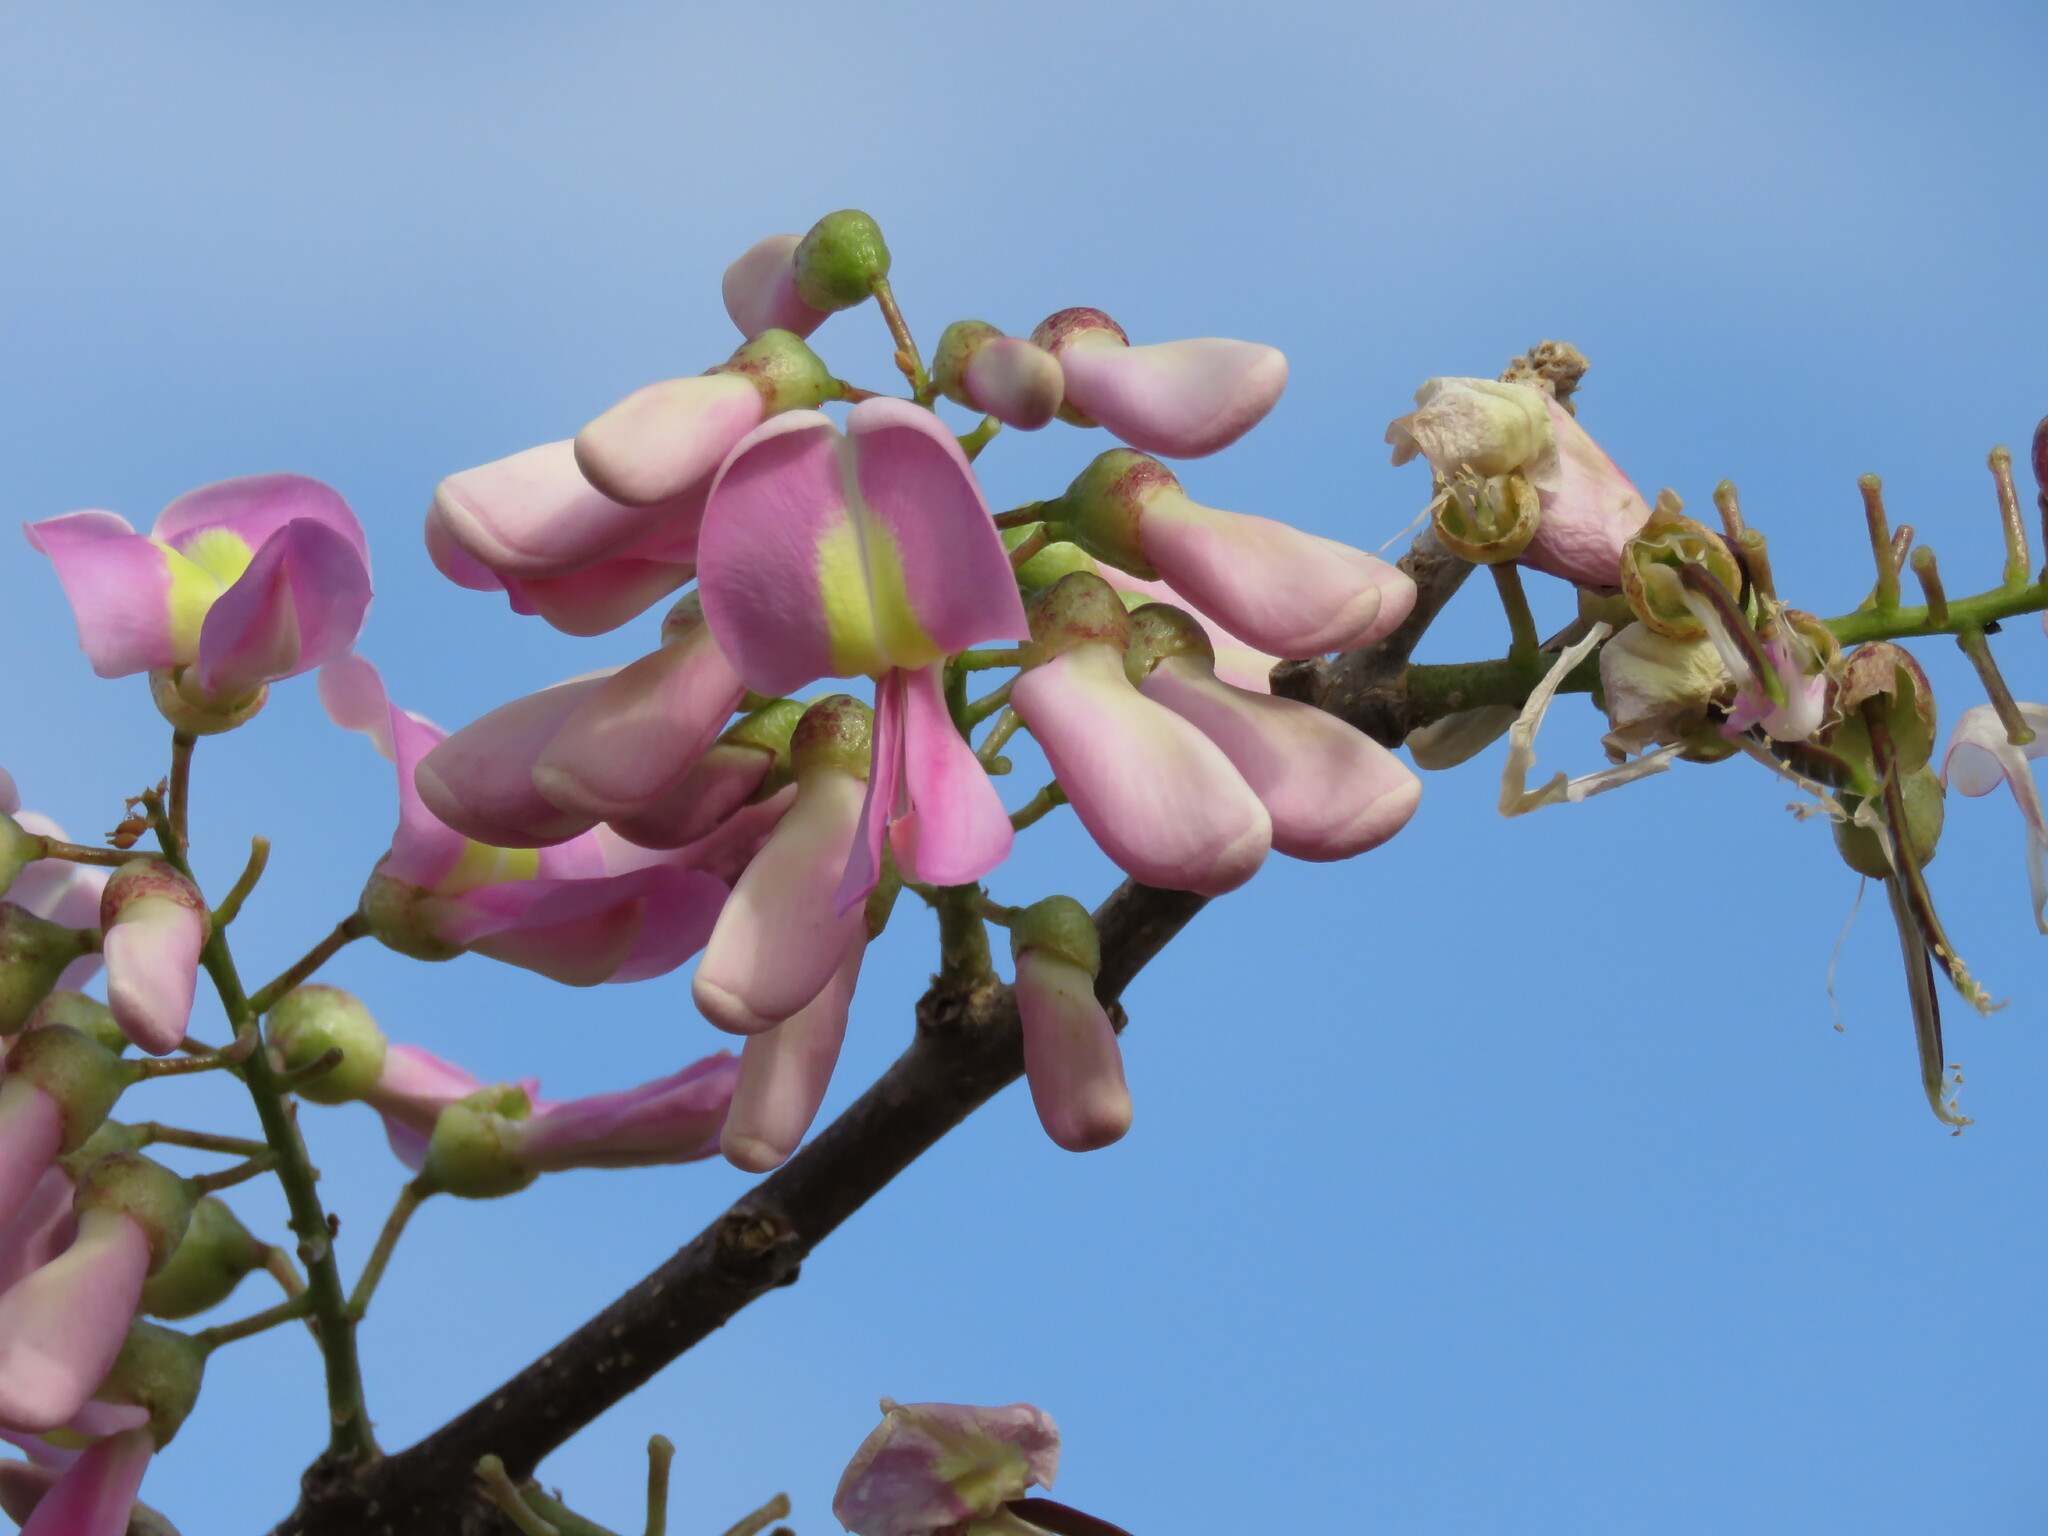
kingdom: Plantae
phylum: Tracheophyta
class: Magnoliopsida
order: Fabales
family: Fabaceae
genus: Gliricidia
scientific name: Gliricidia sepium
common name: Quickstick
